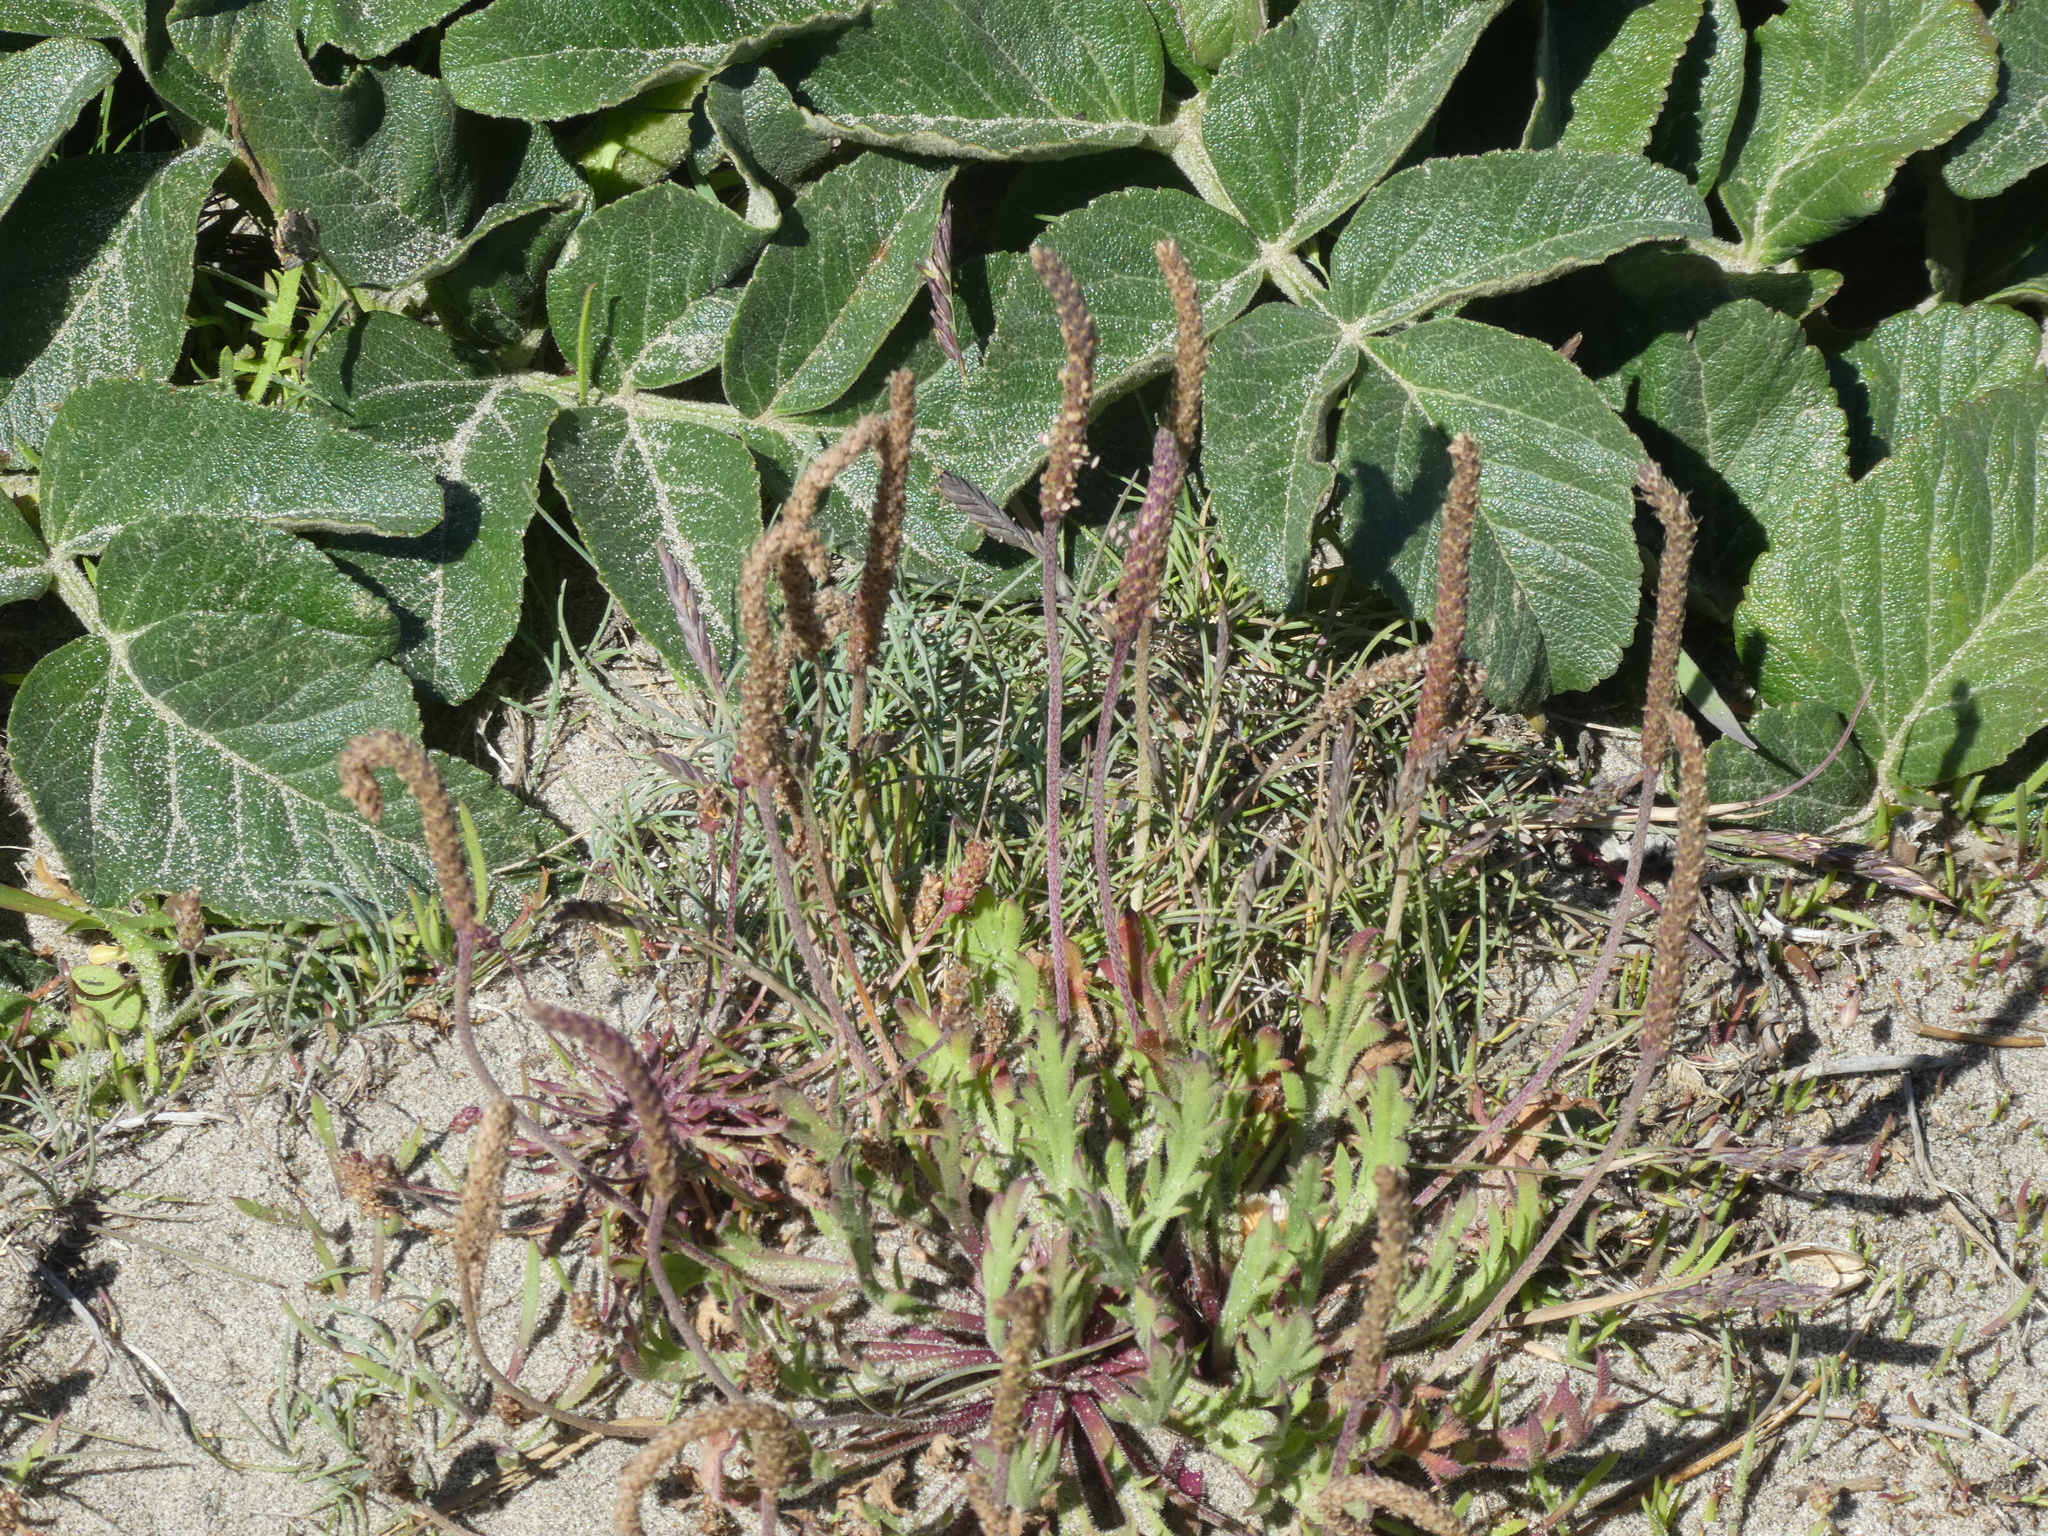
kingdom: Plantae
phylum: Tracheophyta
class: Magnoliopsida
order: Lamiales
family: Plantaginaceae
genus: Plantago
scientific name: Plantago coronopus
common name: Buck's-horn plantain
